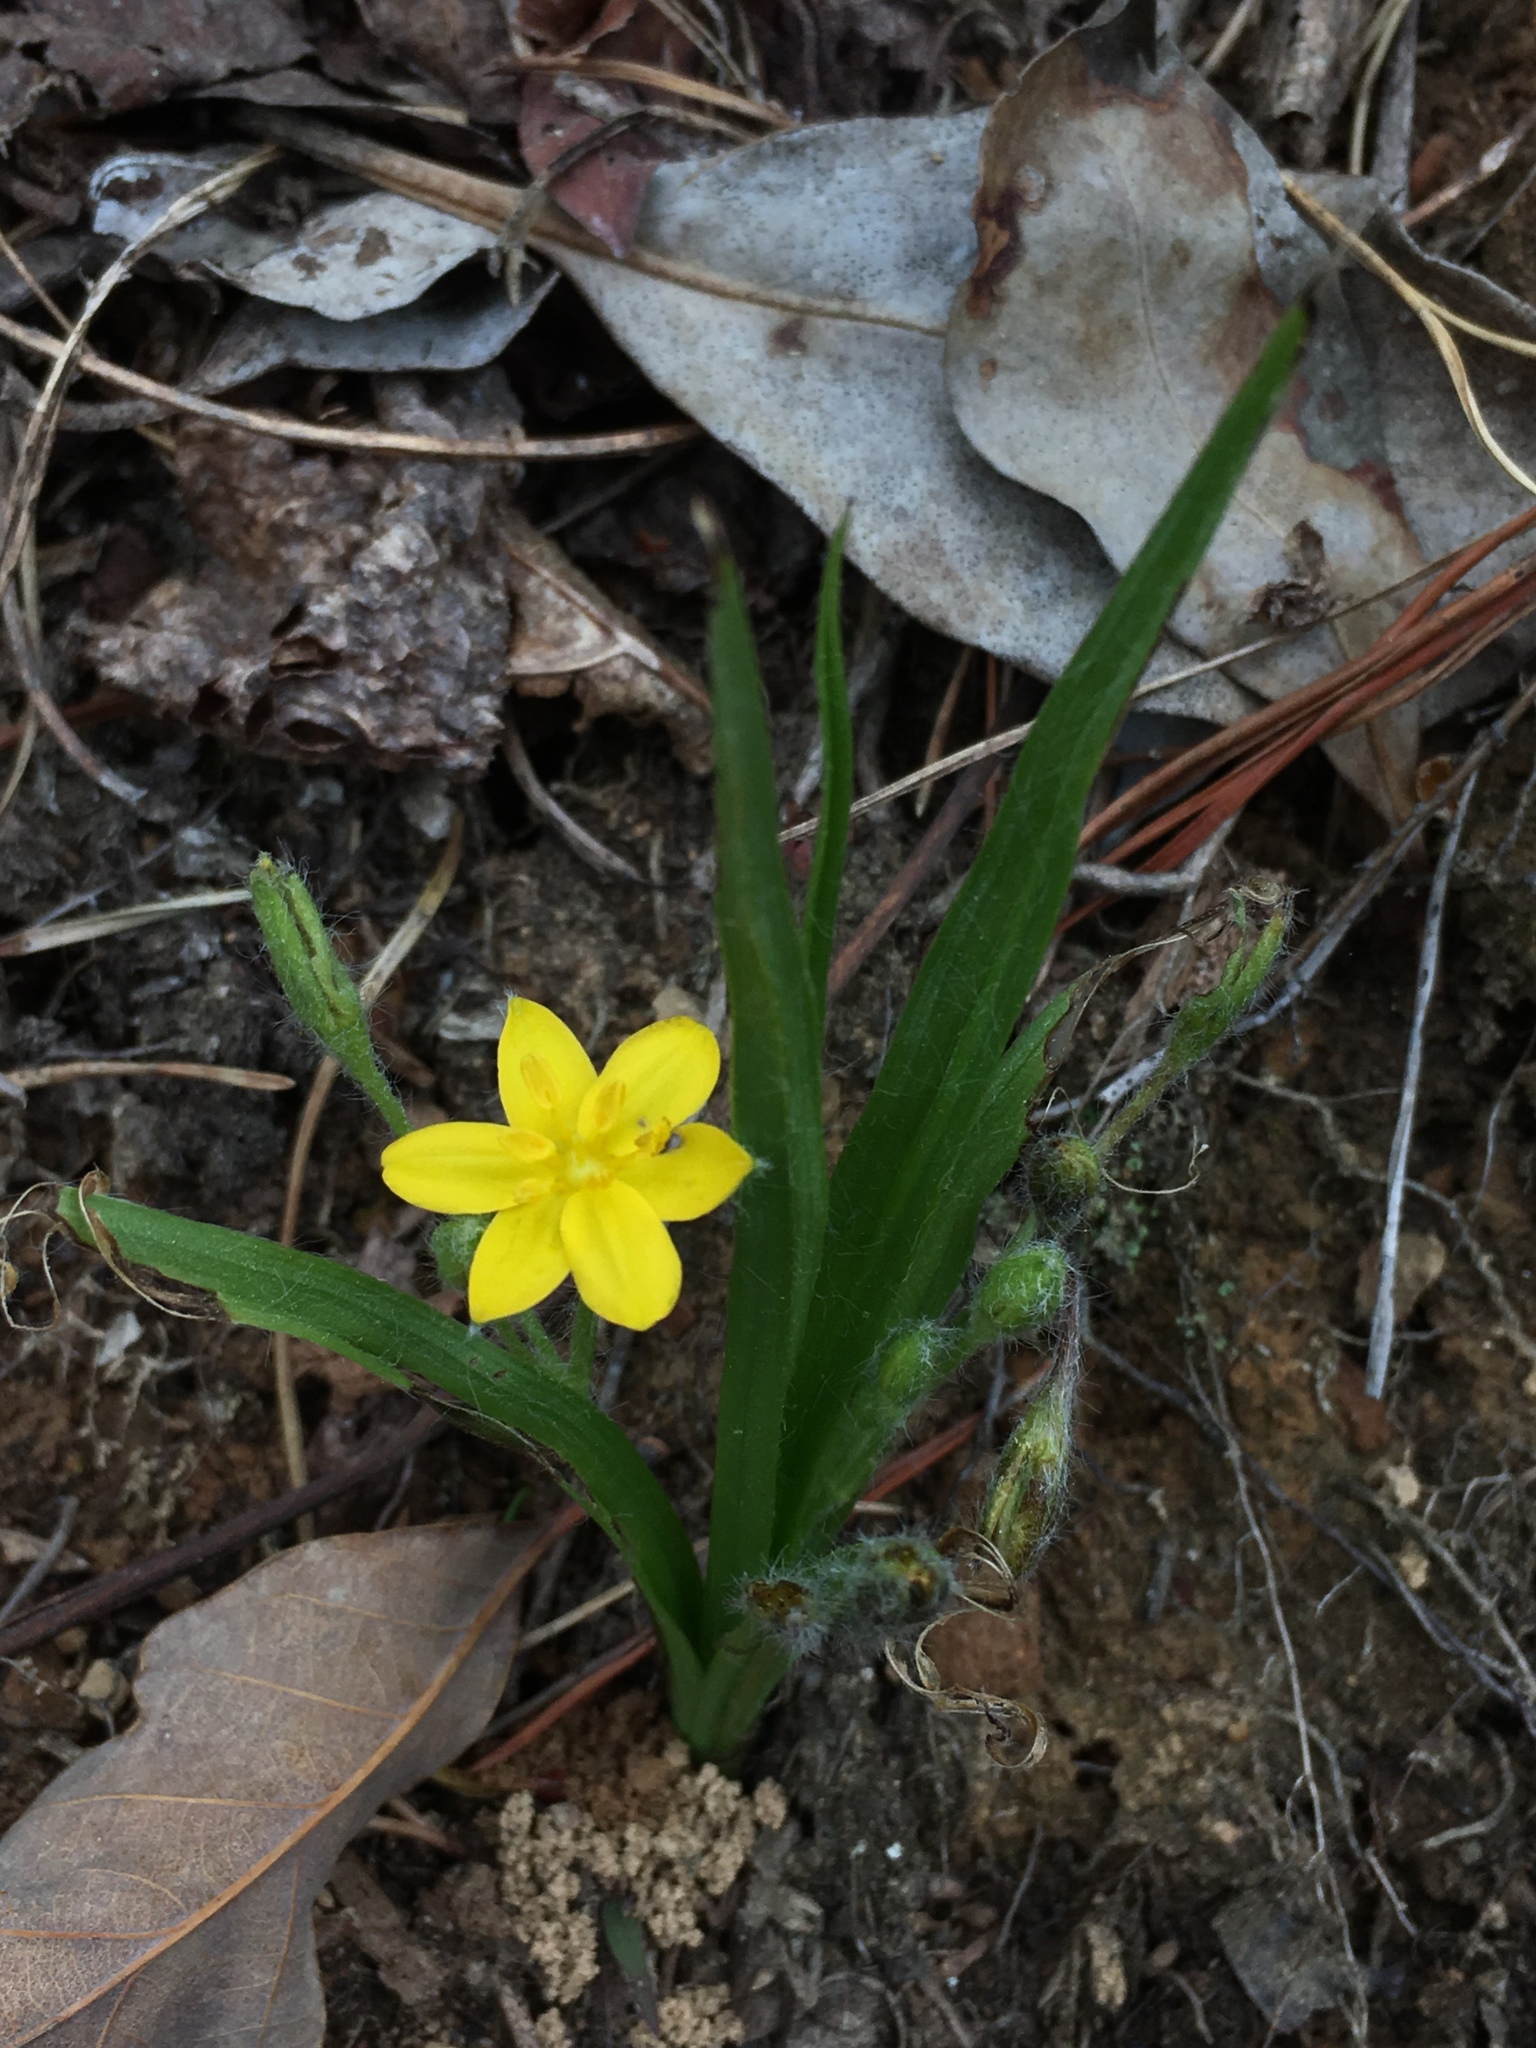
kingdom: Plantae
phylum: Tracheophyta
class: Liliopsida
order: Asparagales
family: Hypoxidaceae
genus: Hypoxis
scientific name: Hypoxis hirsuta
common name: Common goldstar
